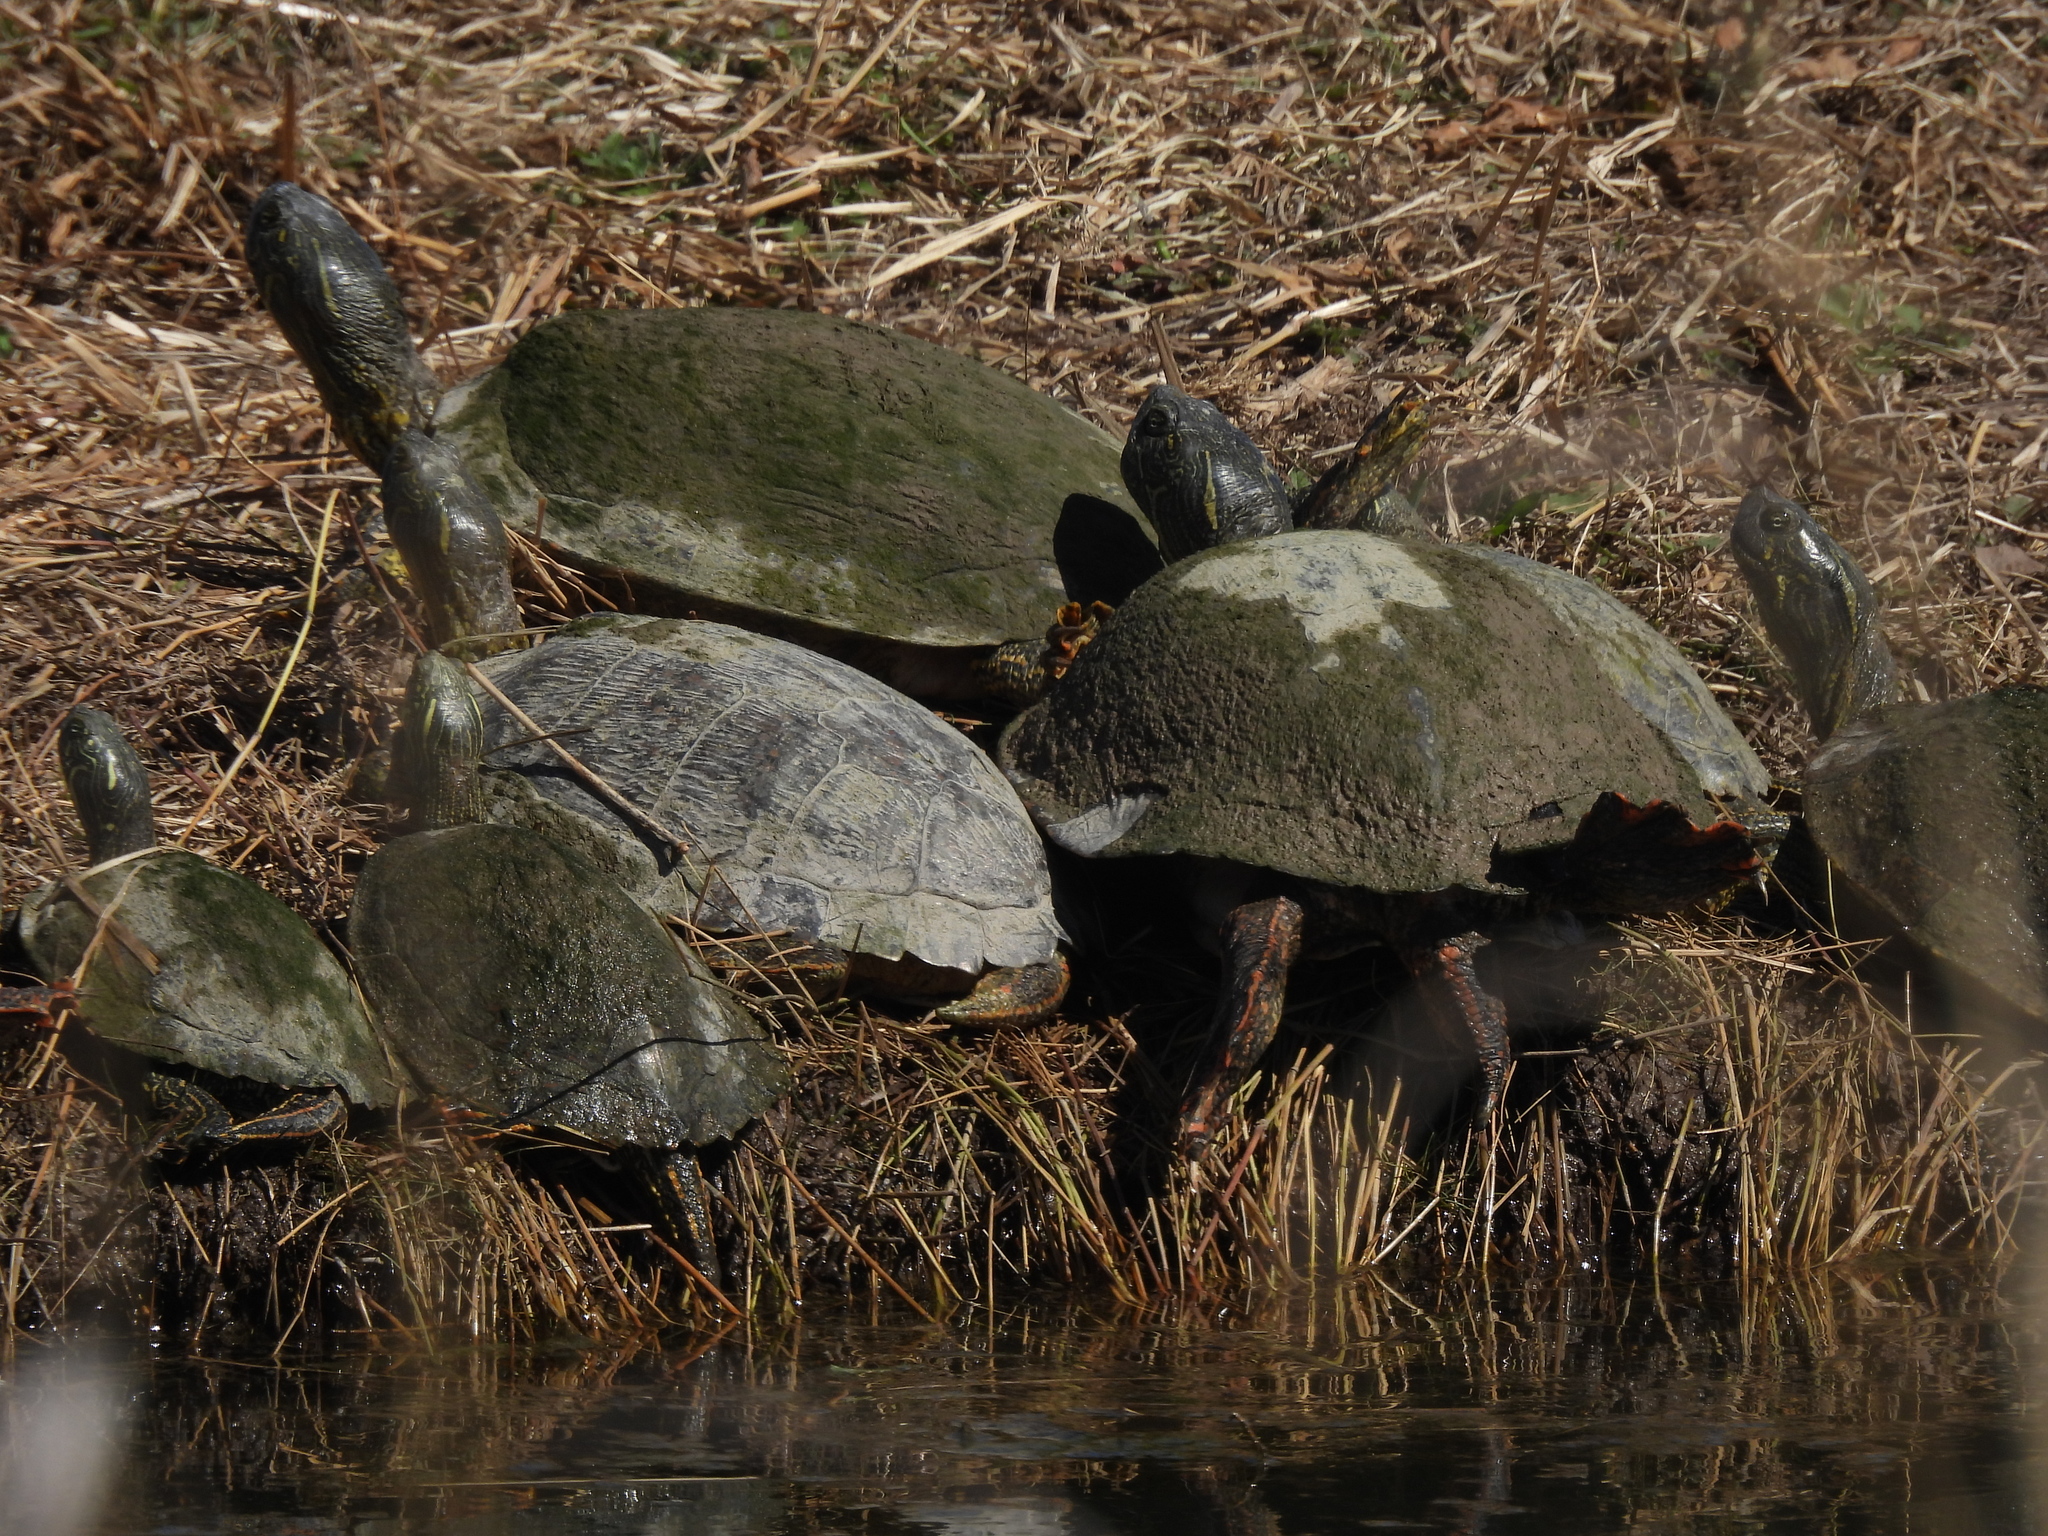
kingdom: Animalia
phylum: Chordata
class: Testudines
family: Emydidae
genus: Pseudemys
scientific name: Pseudemys texana
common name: Texas river cooter
